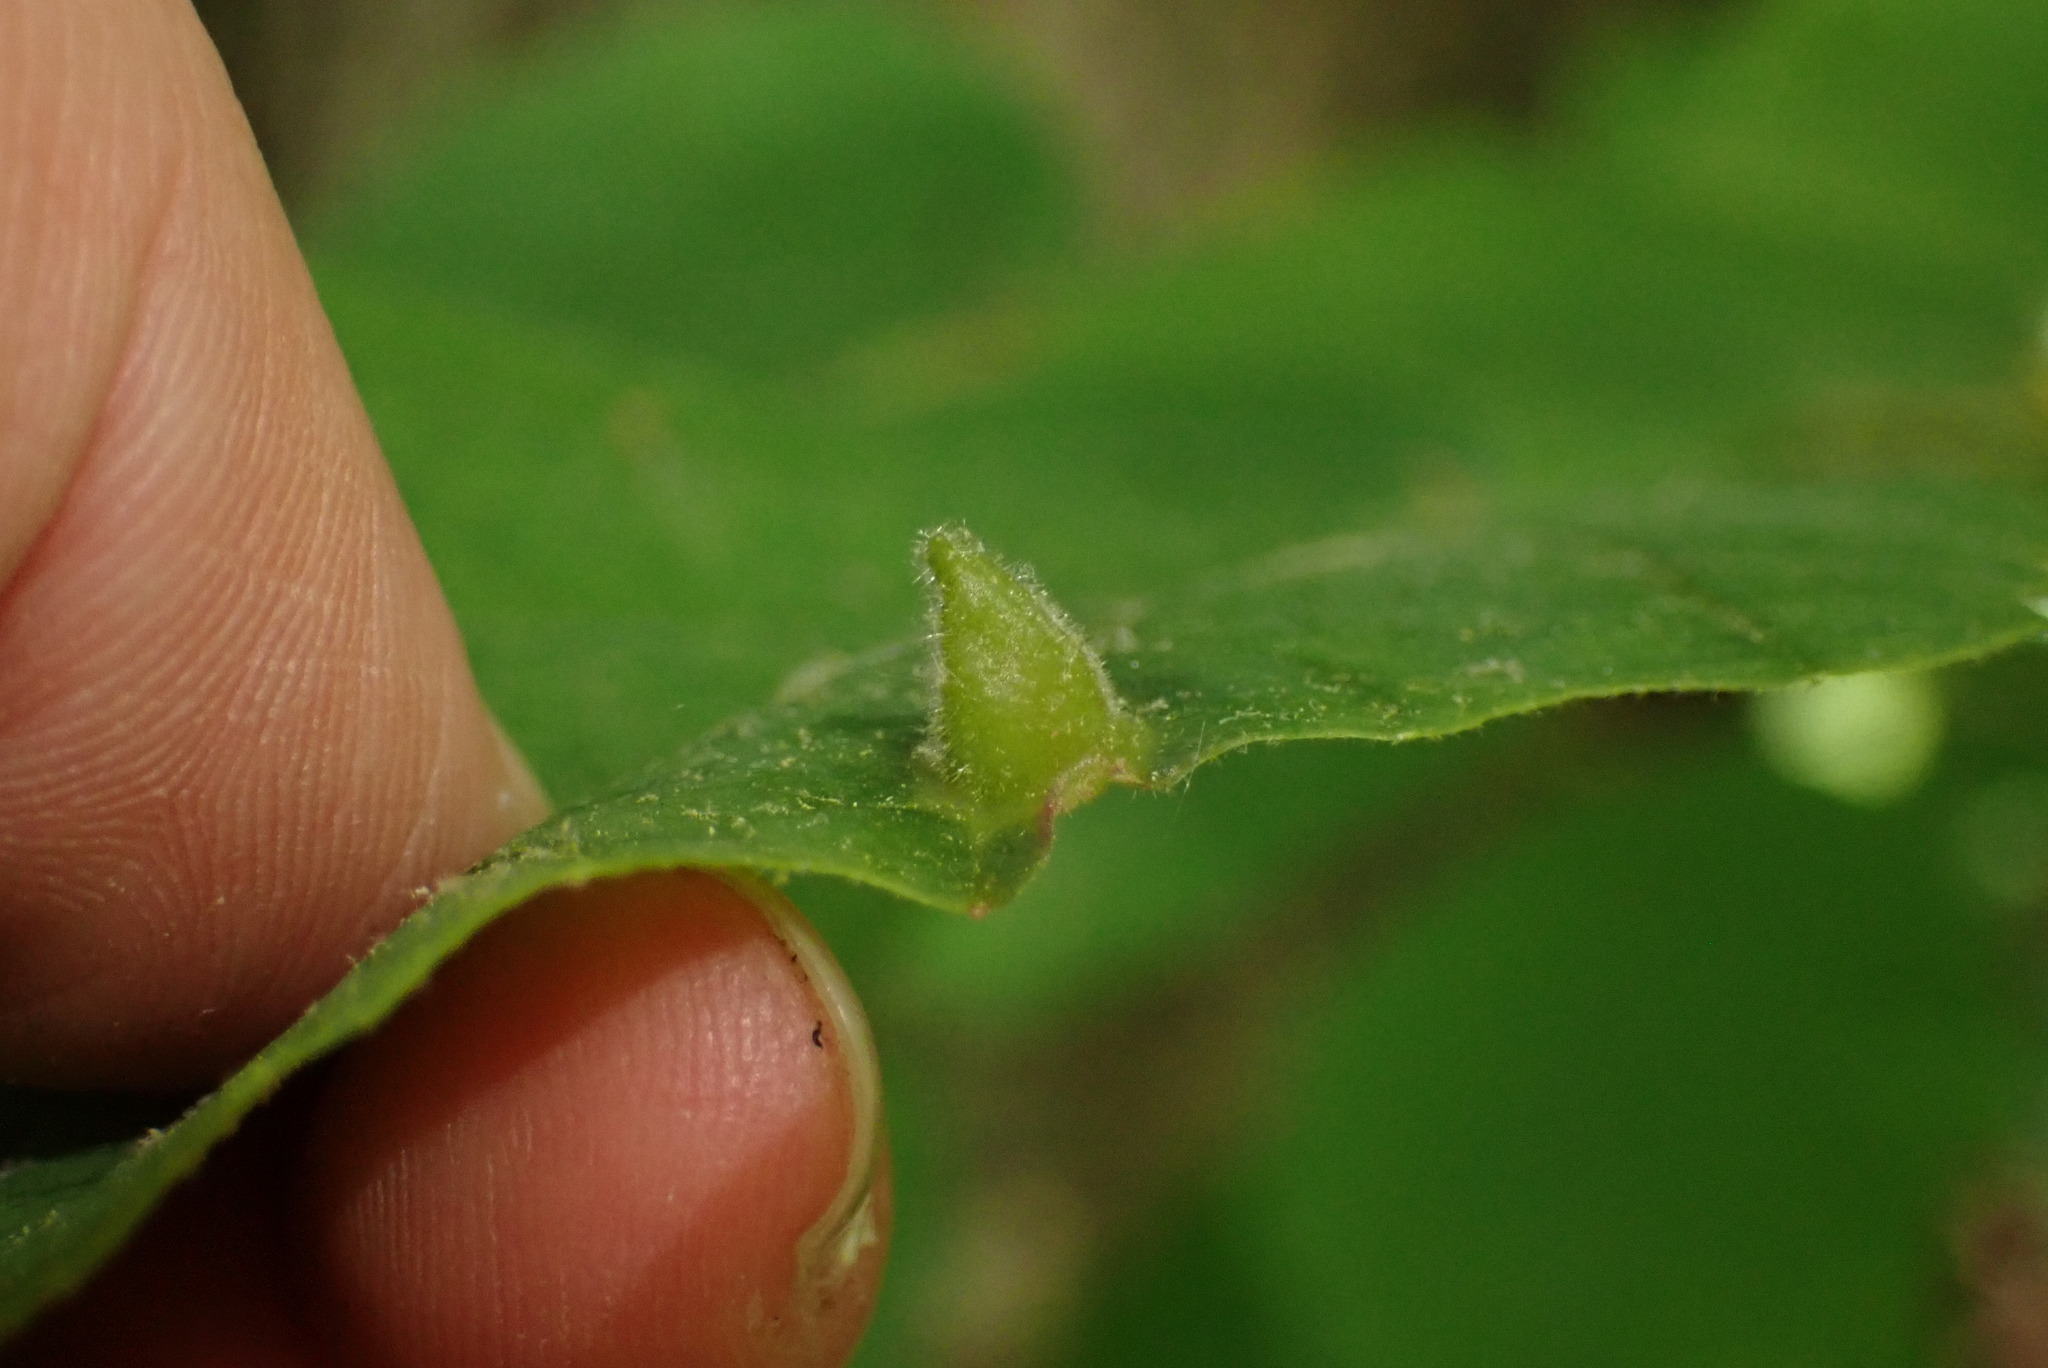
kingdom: Animalia
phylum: Arthropoda
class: Insecta
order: Hemiptera
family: Aphididae
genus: Hormaphis
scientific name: Hormaphis hamamelidis
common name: Witch-hazel cone gall aphid
